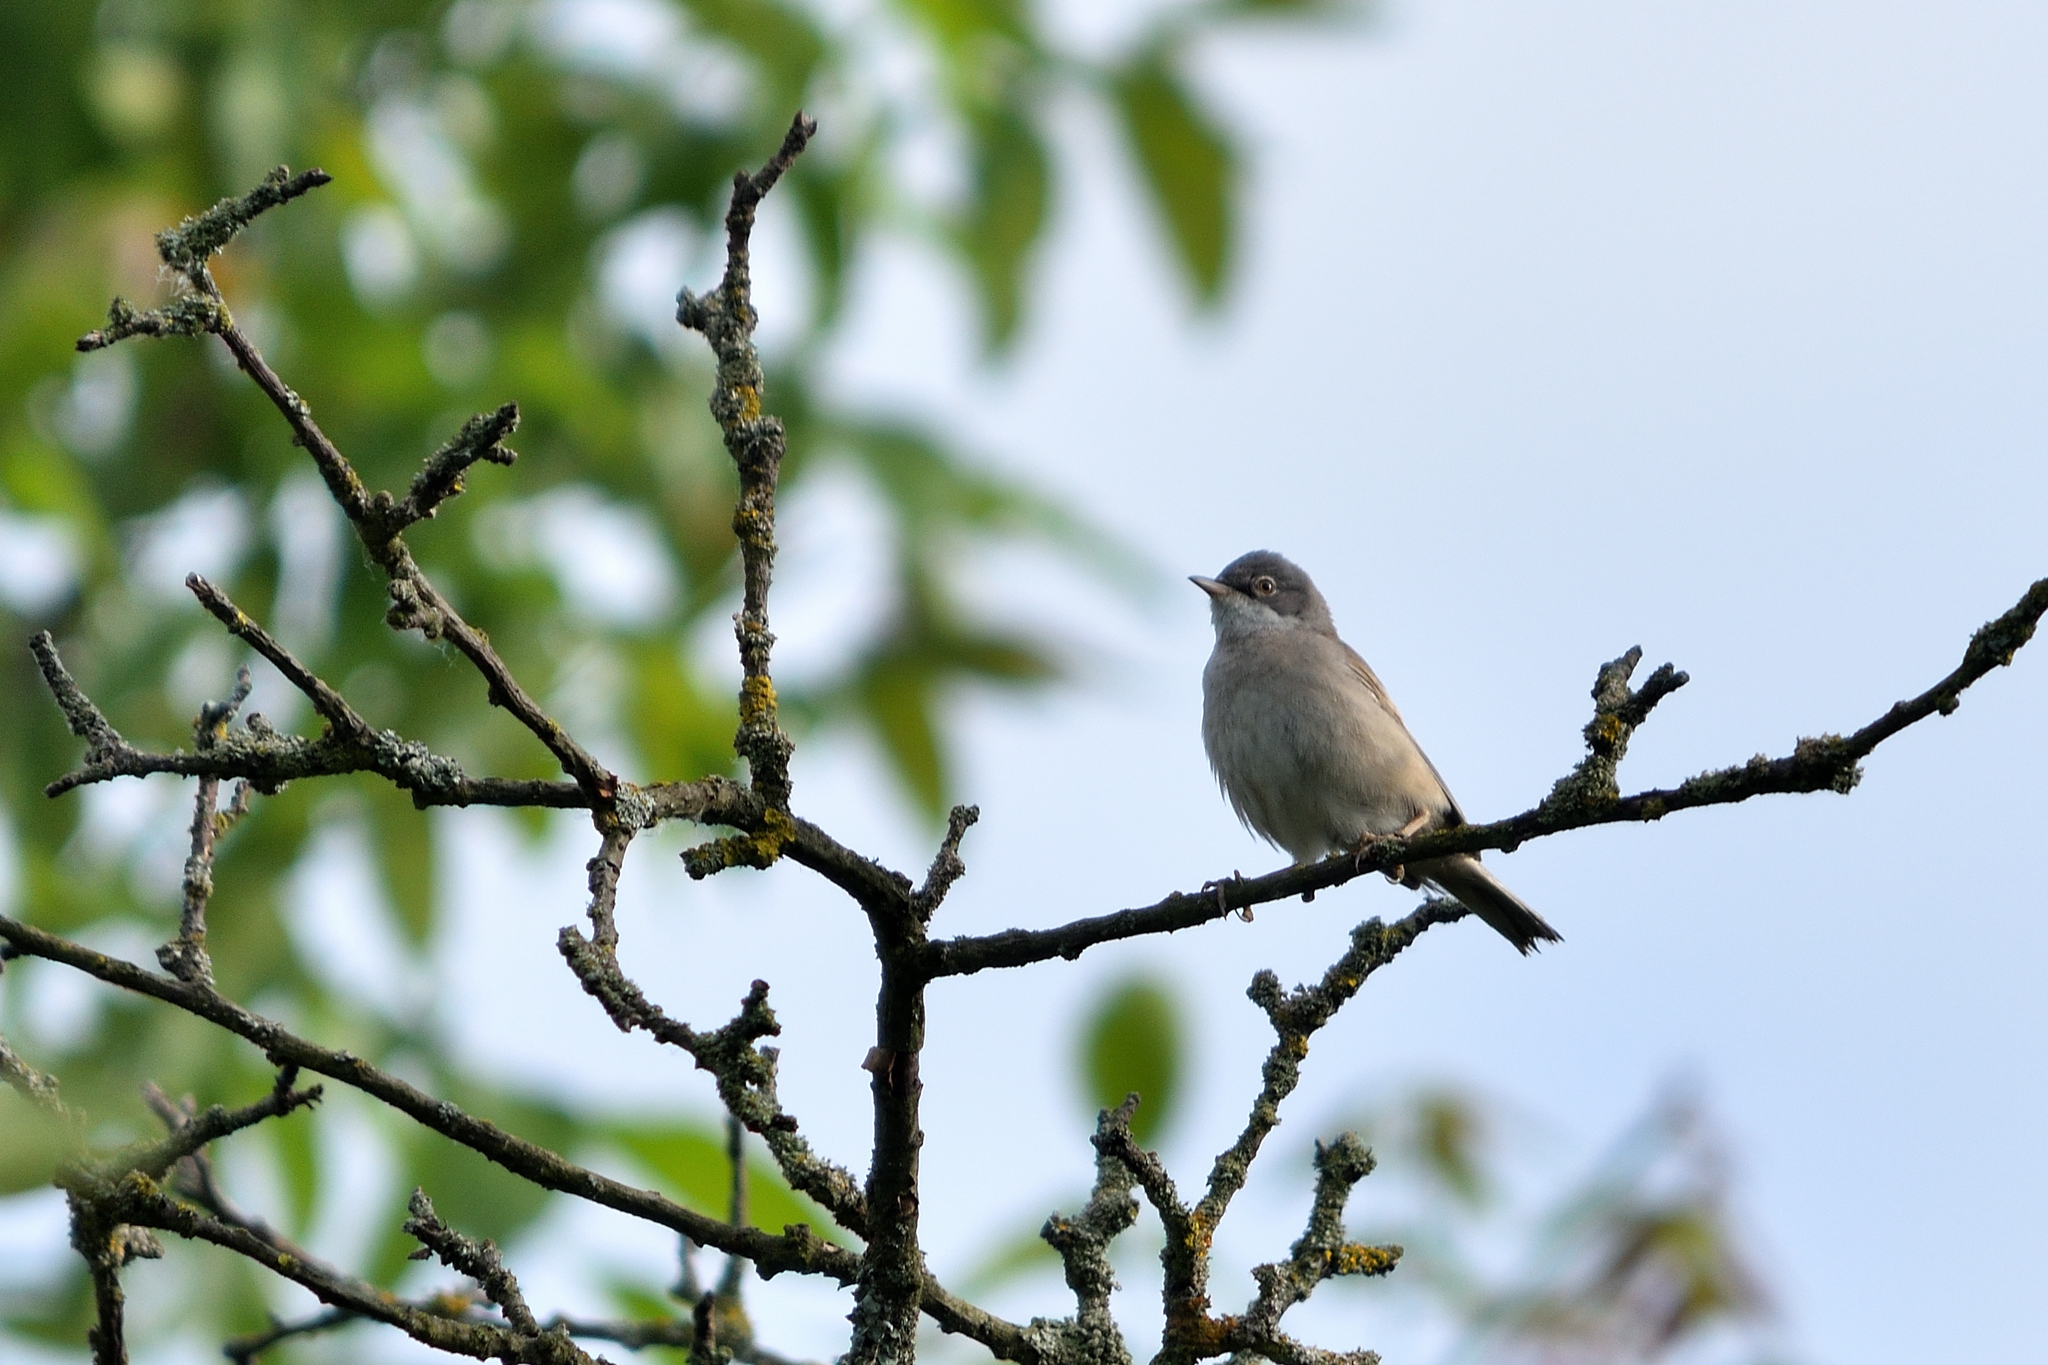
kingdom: Animalia
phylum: Chordata
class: Aves
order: Passeriformes
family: Sylviidae
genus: Sylvia
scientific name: Sylvia communis
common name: Common whitethroat
